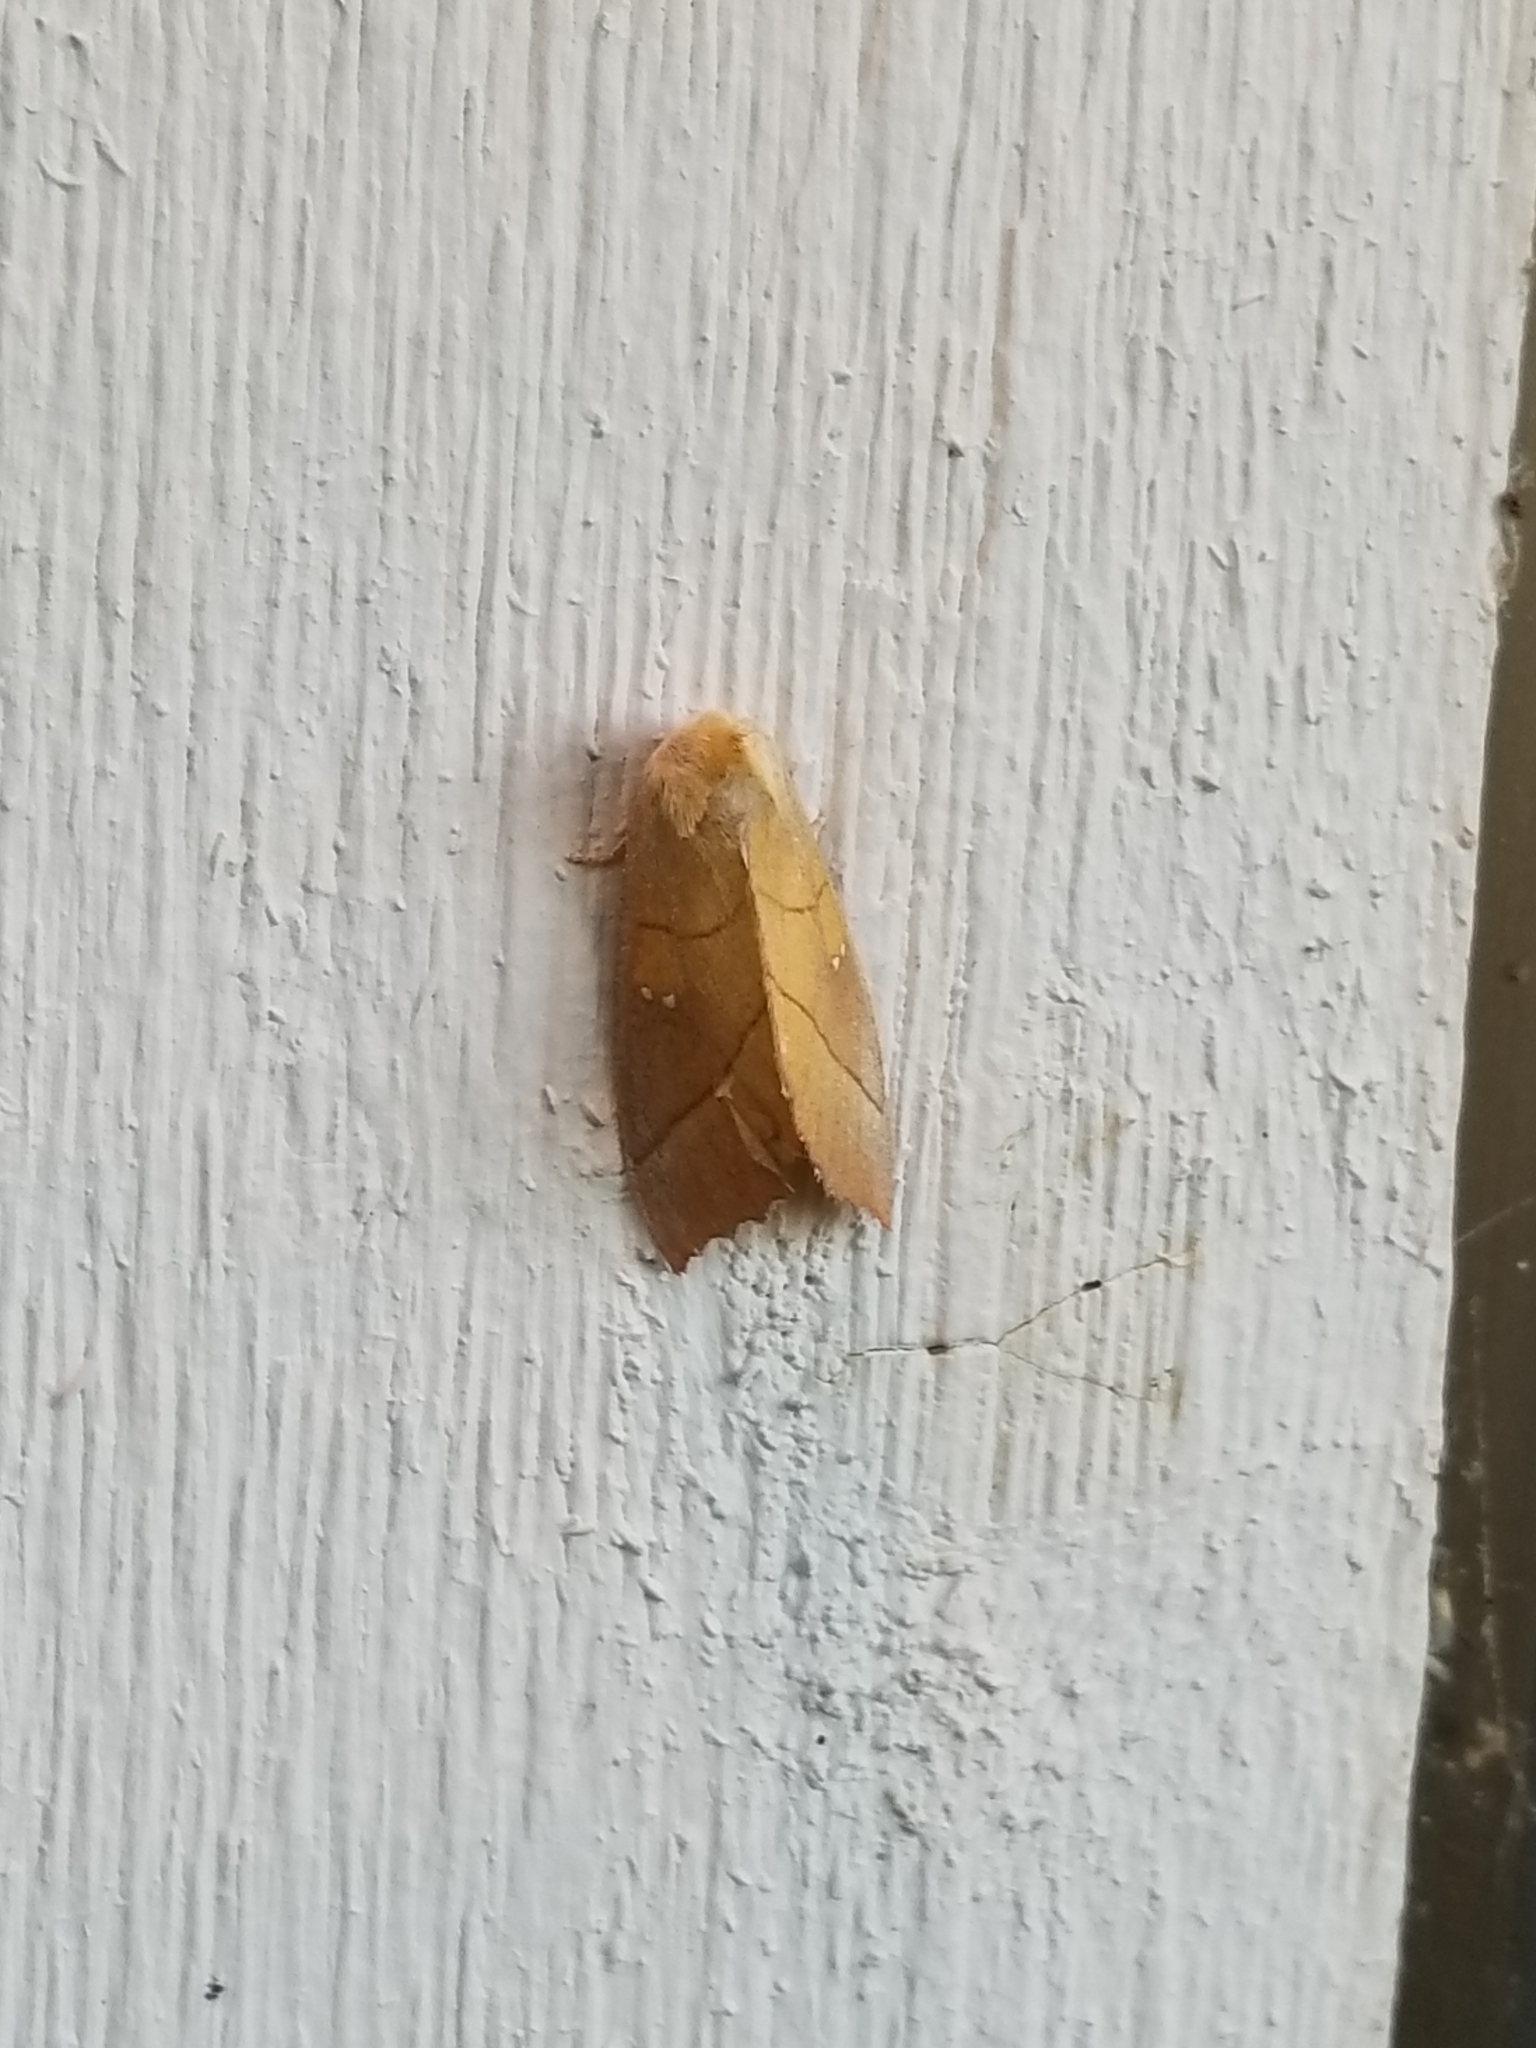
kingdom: Animalia
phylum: Arthropoda
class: Insecta
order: Lepidoptera
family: Notodontidae
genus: Nadata
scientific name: Nadata gibbosa
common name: White-dotted prominent
